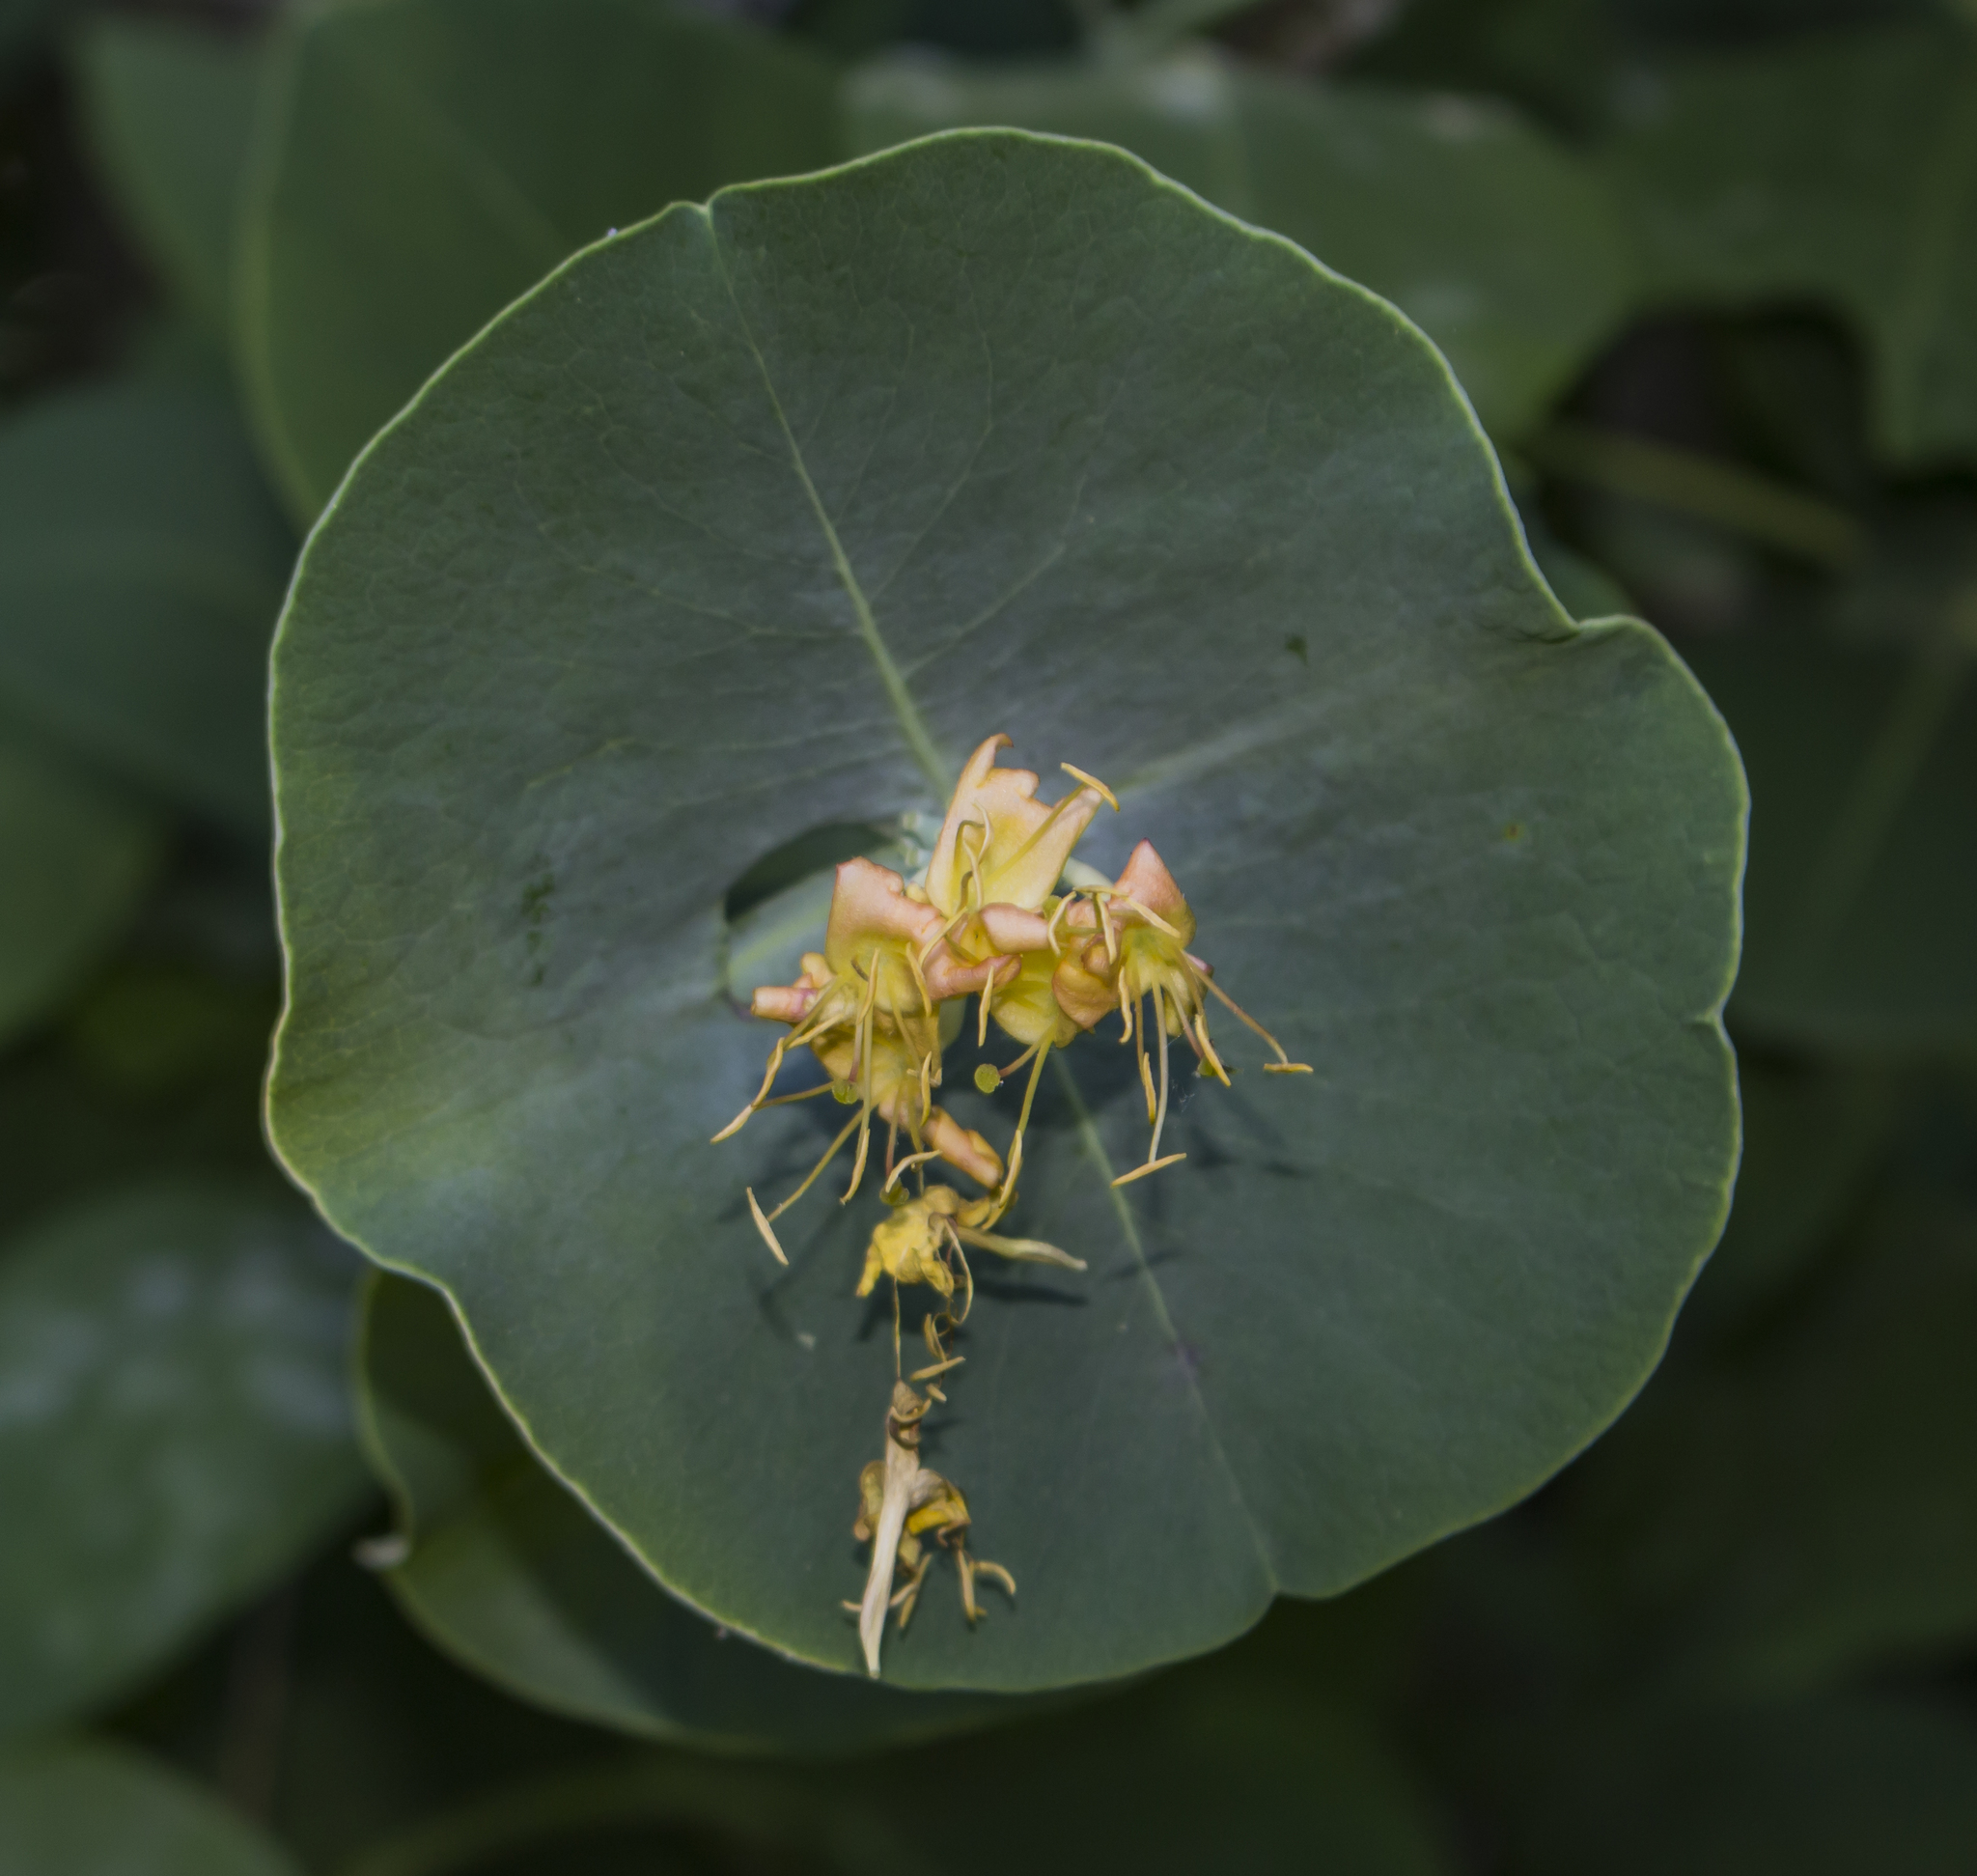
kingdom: Plantae
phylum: Tracheophyta
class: Magnoliopsida
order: Dipsacales
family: Caprifoliaceae
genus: Lonicera
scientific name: Lonicera reticulata
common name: Grape honeysuckle
